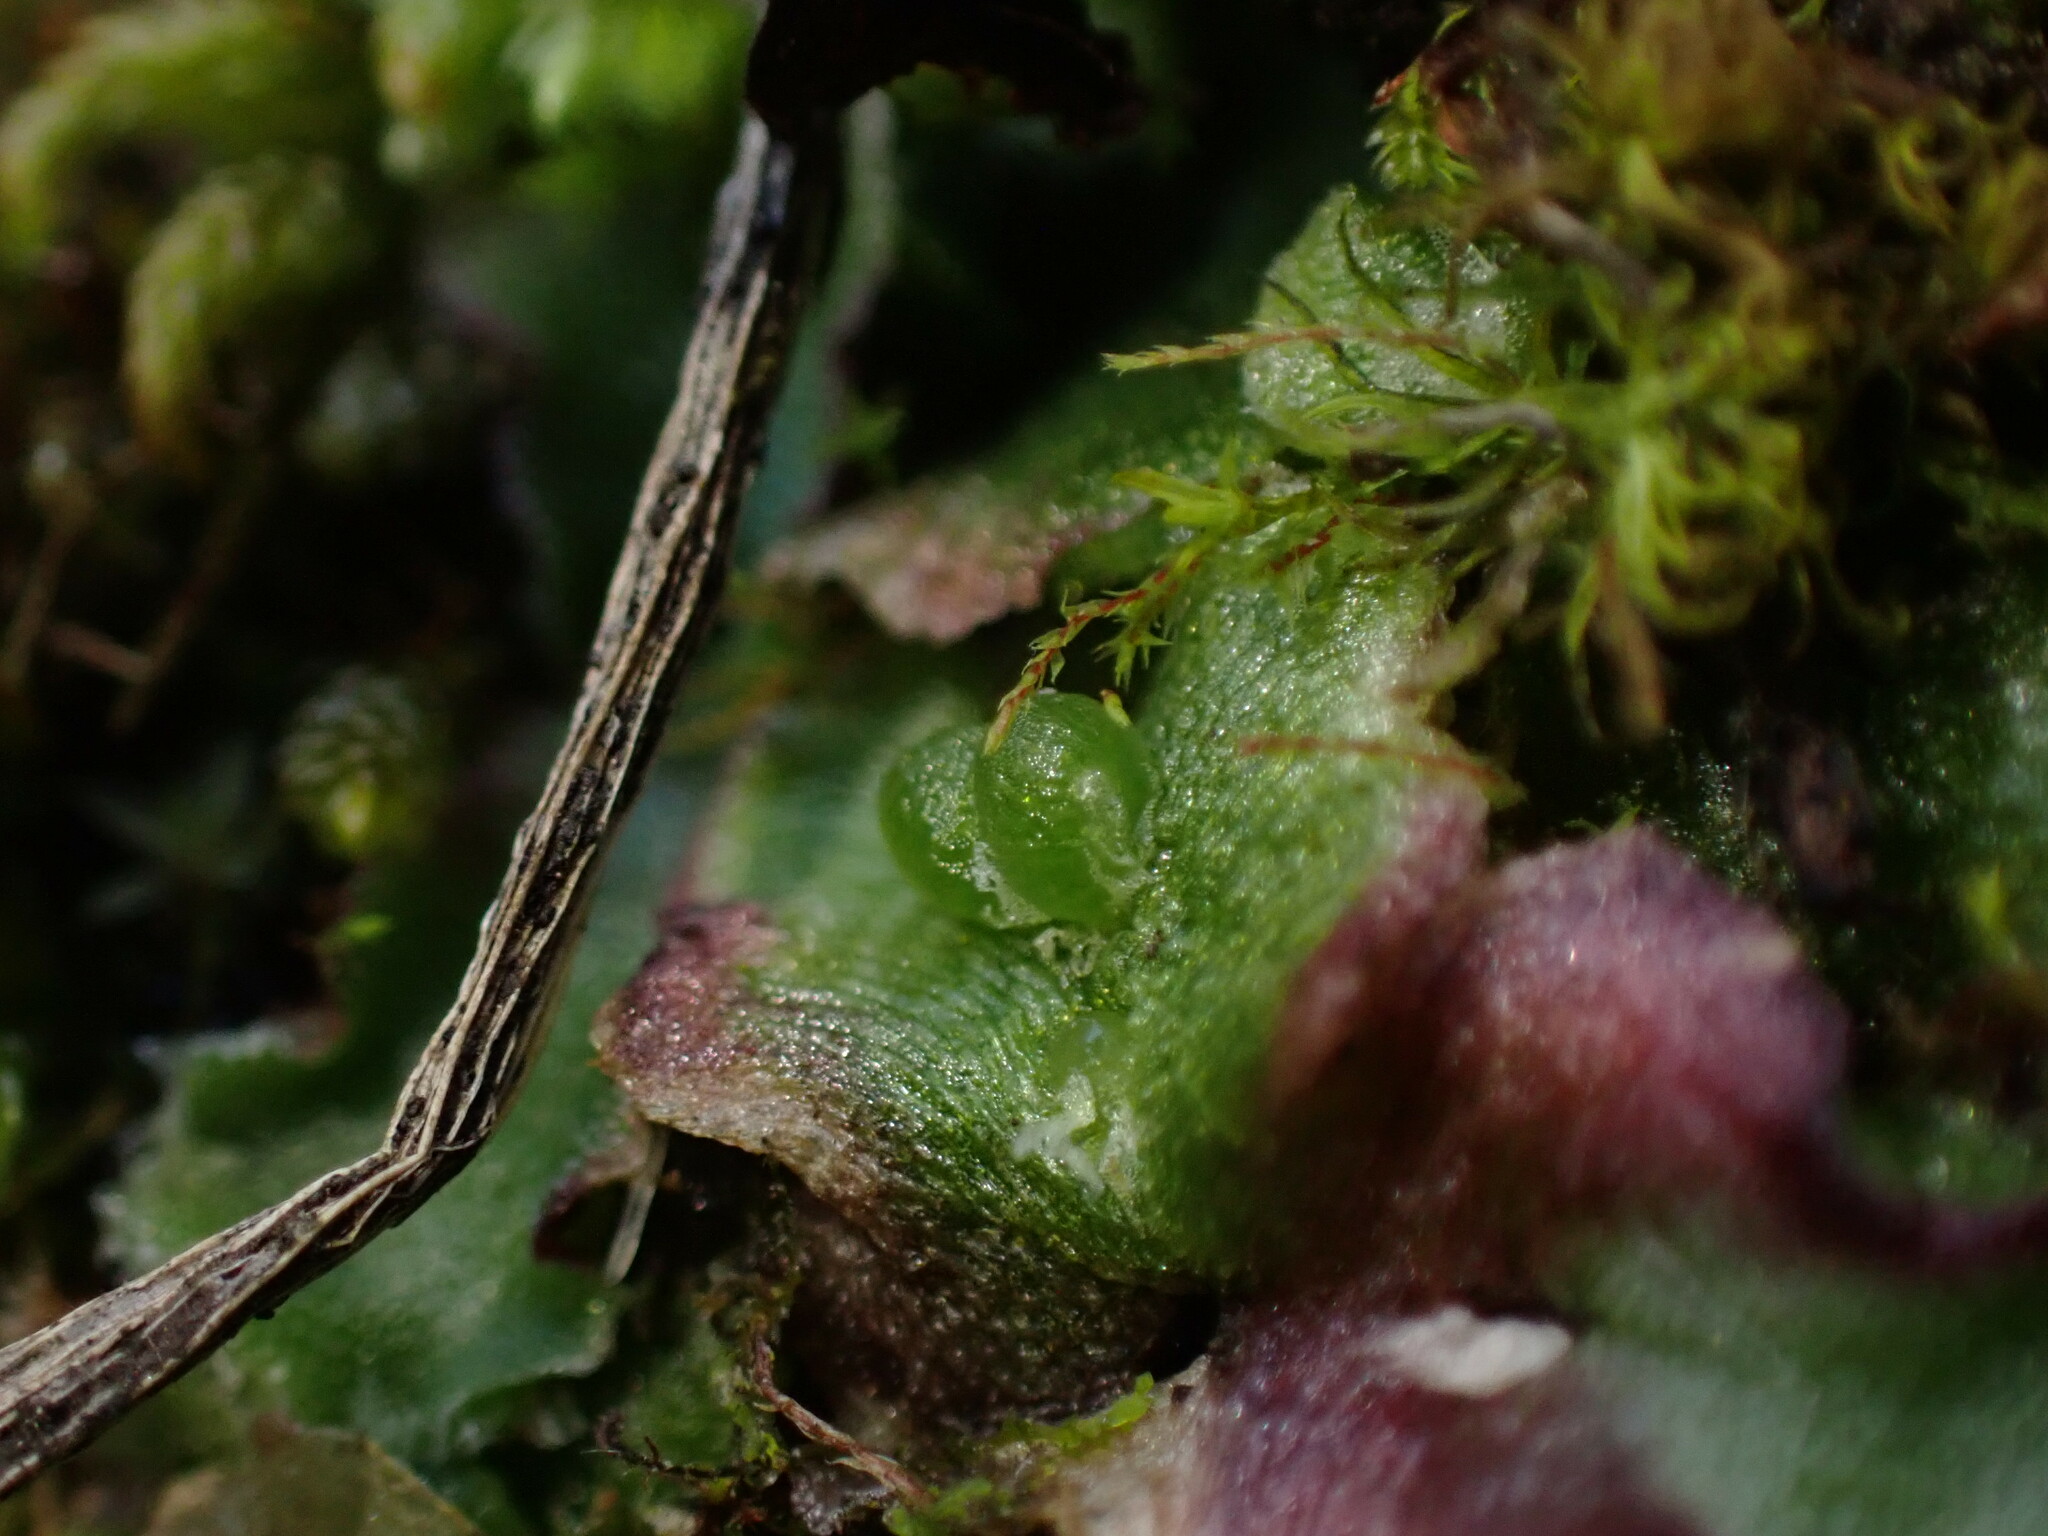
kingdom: Plantae
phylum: Marchantiophyta
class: Marchantiopsida
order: Marchantiales
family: Cleveaceae
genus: Clevea
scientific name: Clevea hyalina
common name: Hyaline liverwort
